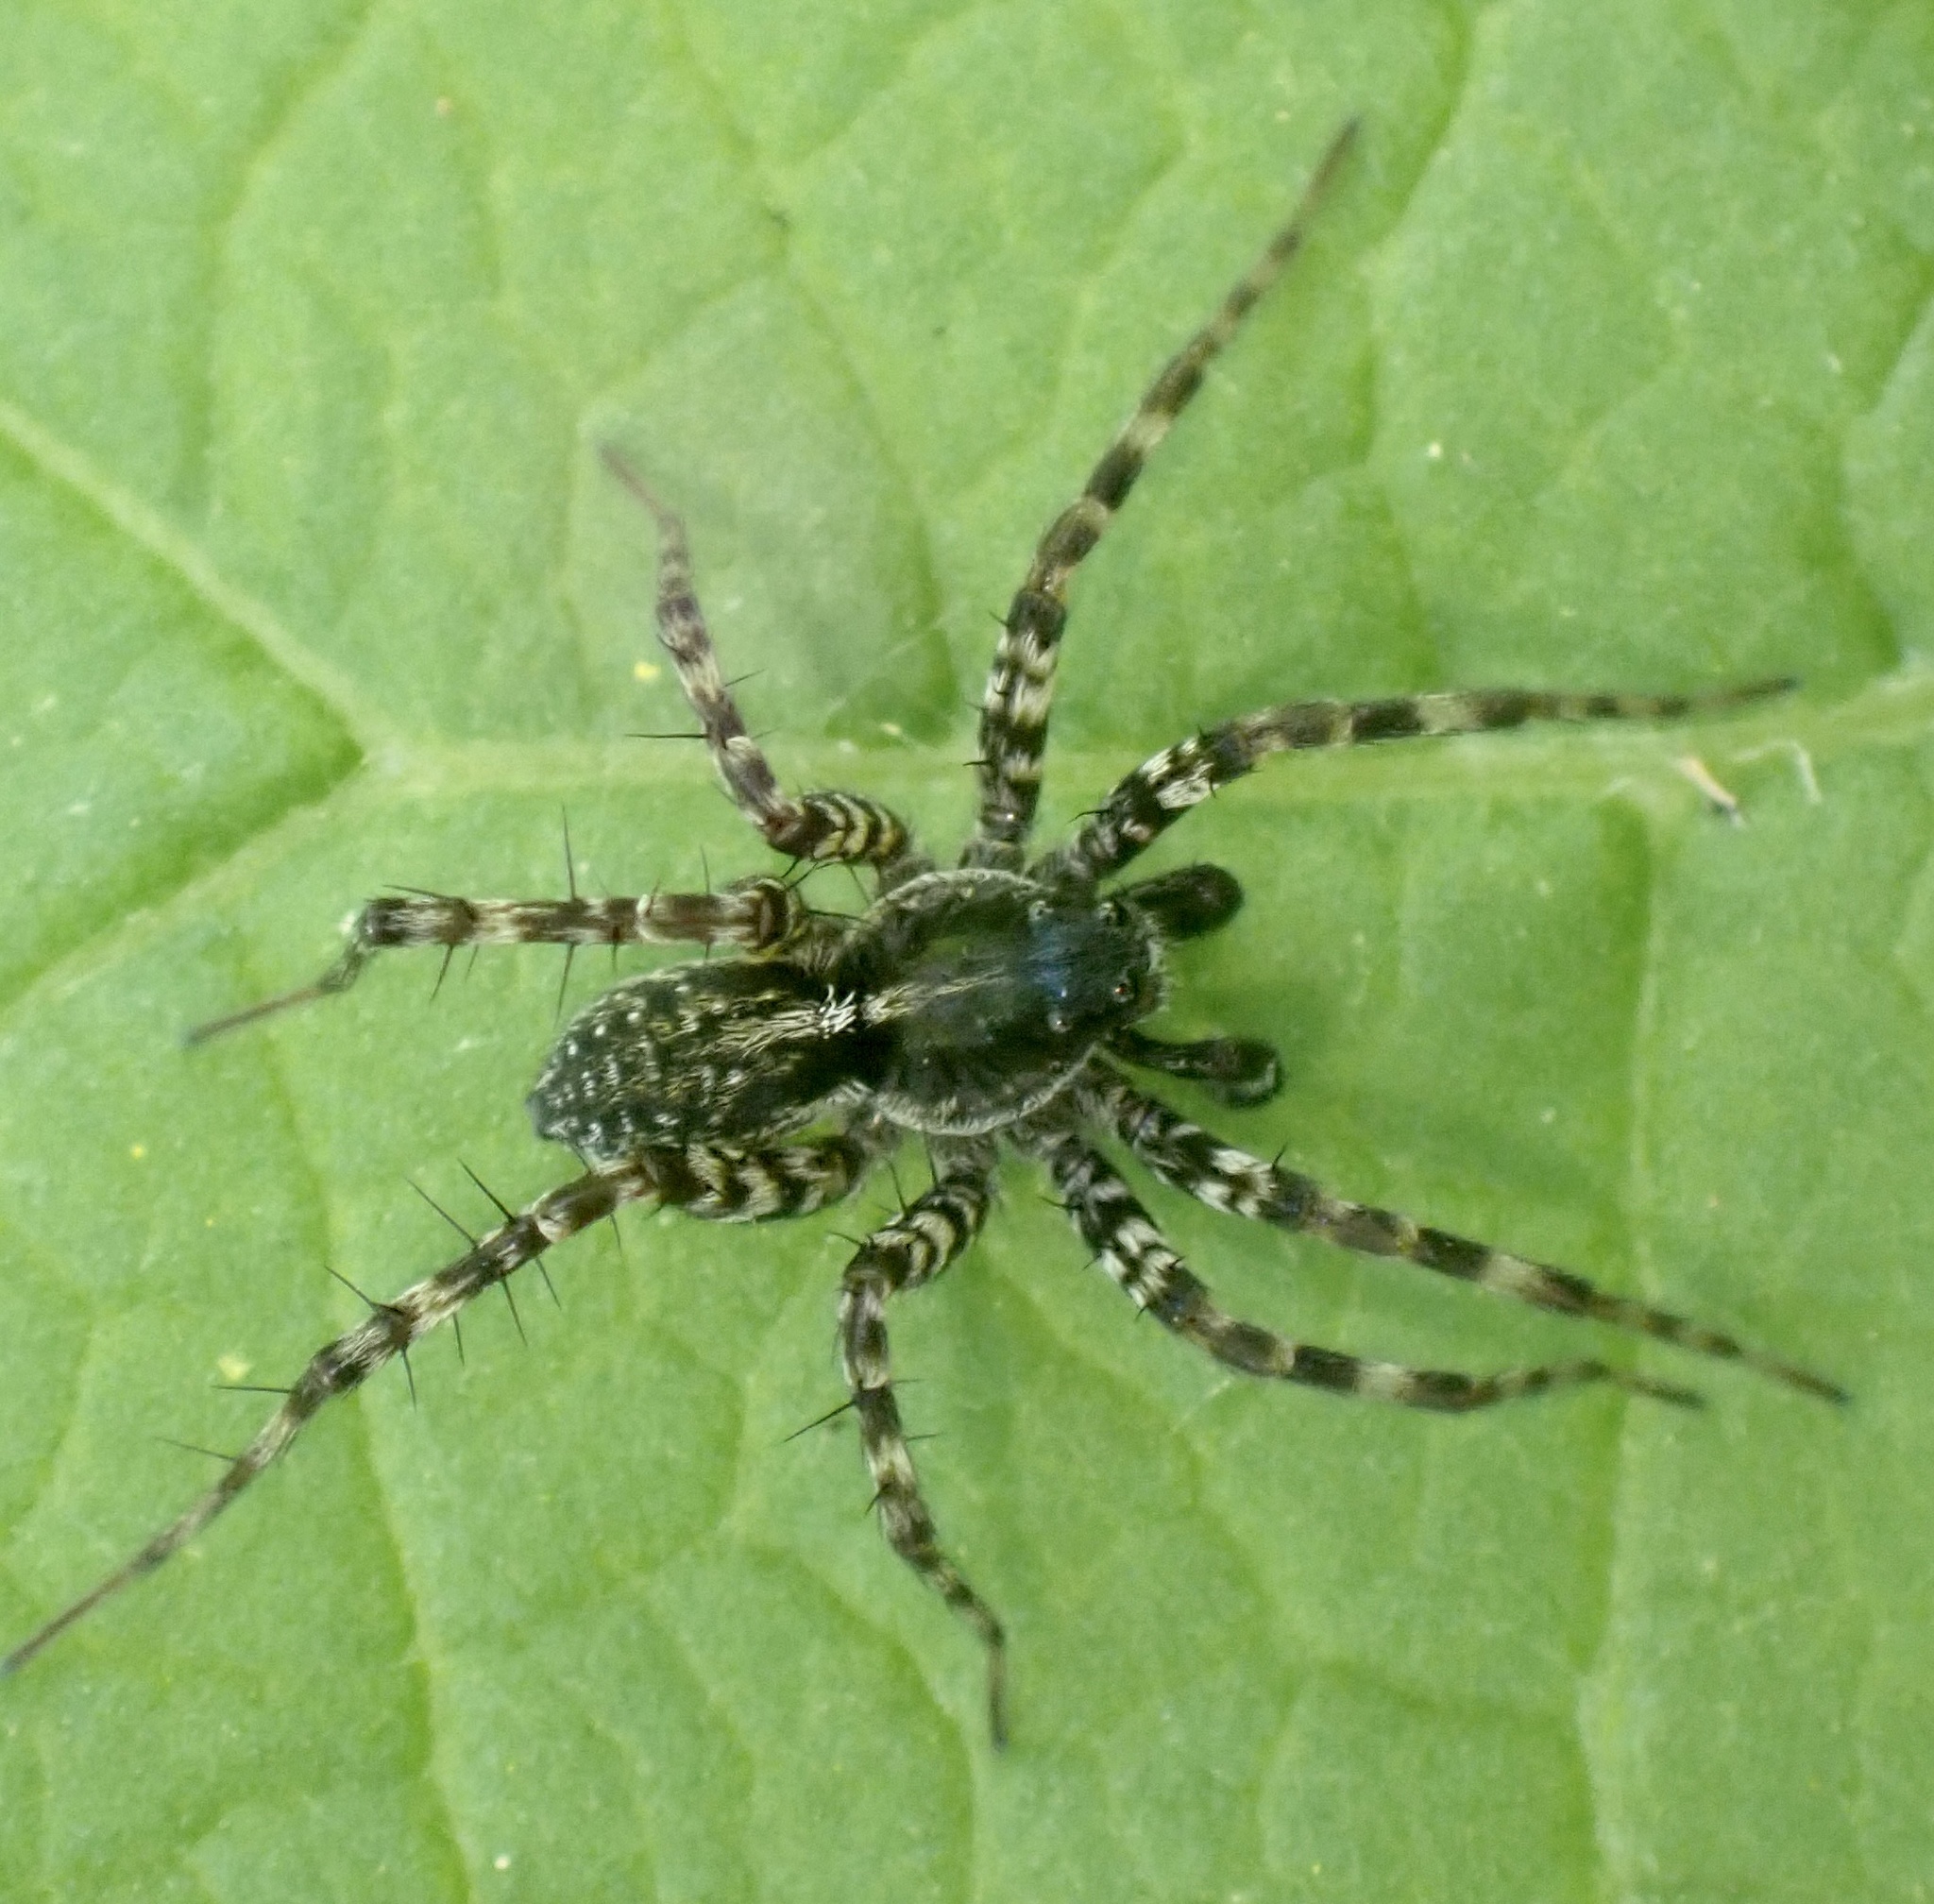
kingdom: Animalia
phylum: Arthropoda
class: Arachnida
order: Araneae
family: Lycosidae
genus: Pardosa
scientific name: Pardosa prativaga
